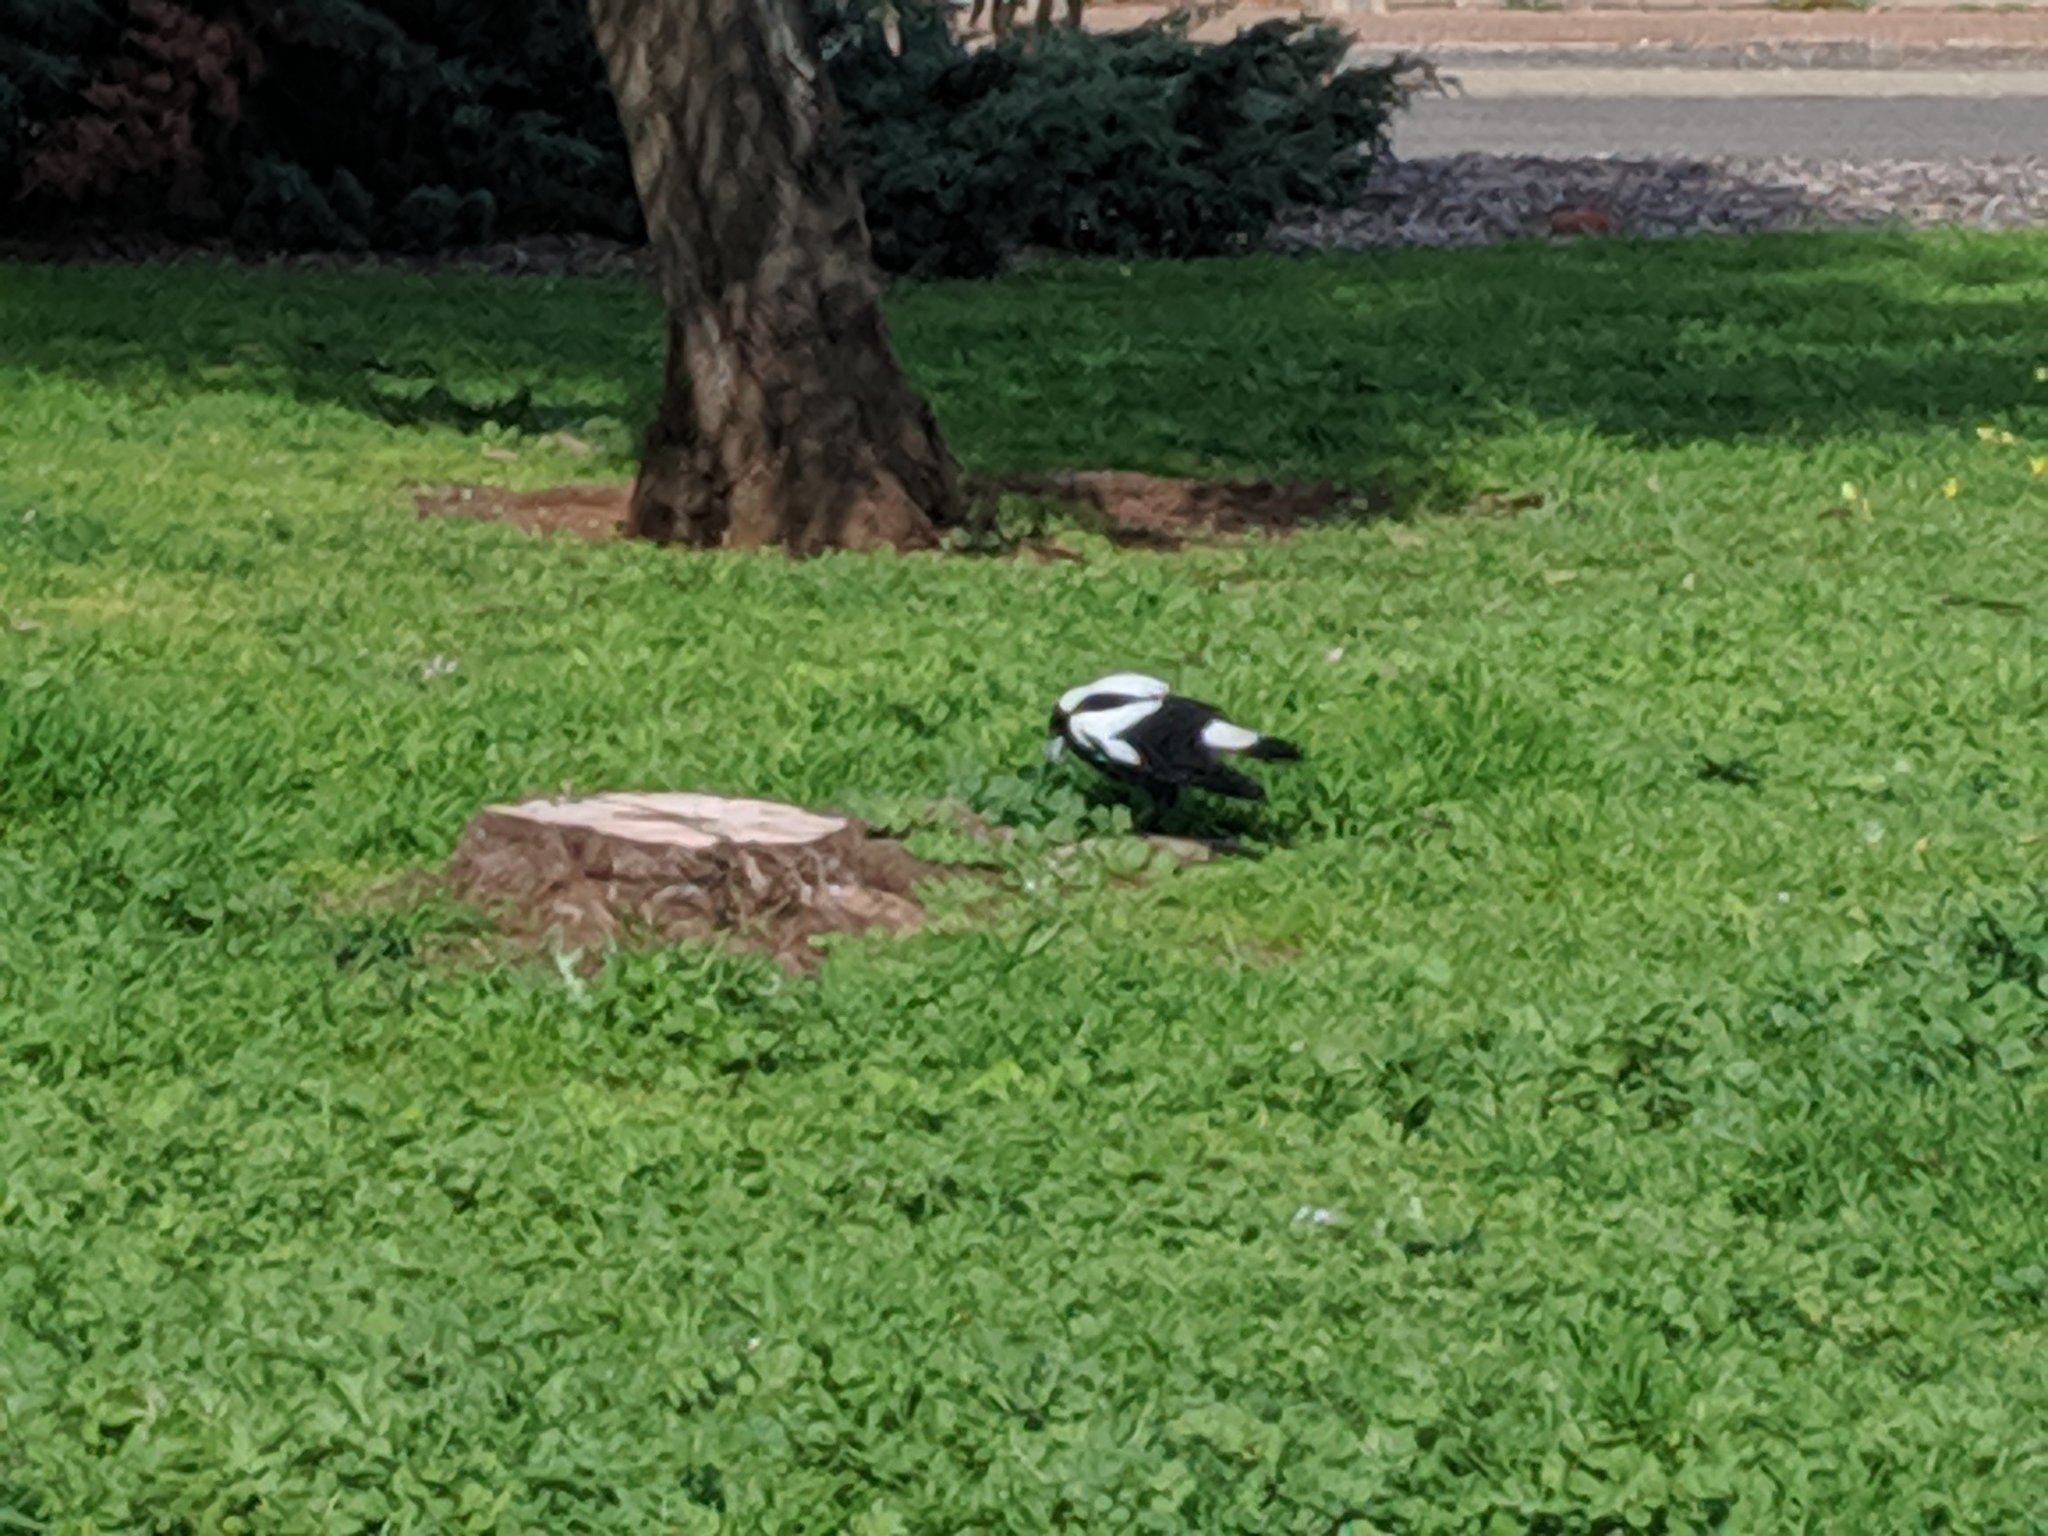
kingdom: Animalia
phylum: Chordata
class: Aves
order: Passeriformes
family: Cracticidae
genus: Gymnorhina
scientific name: Gymnorhina tibicen
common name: Australian magpie
